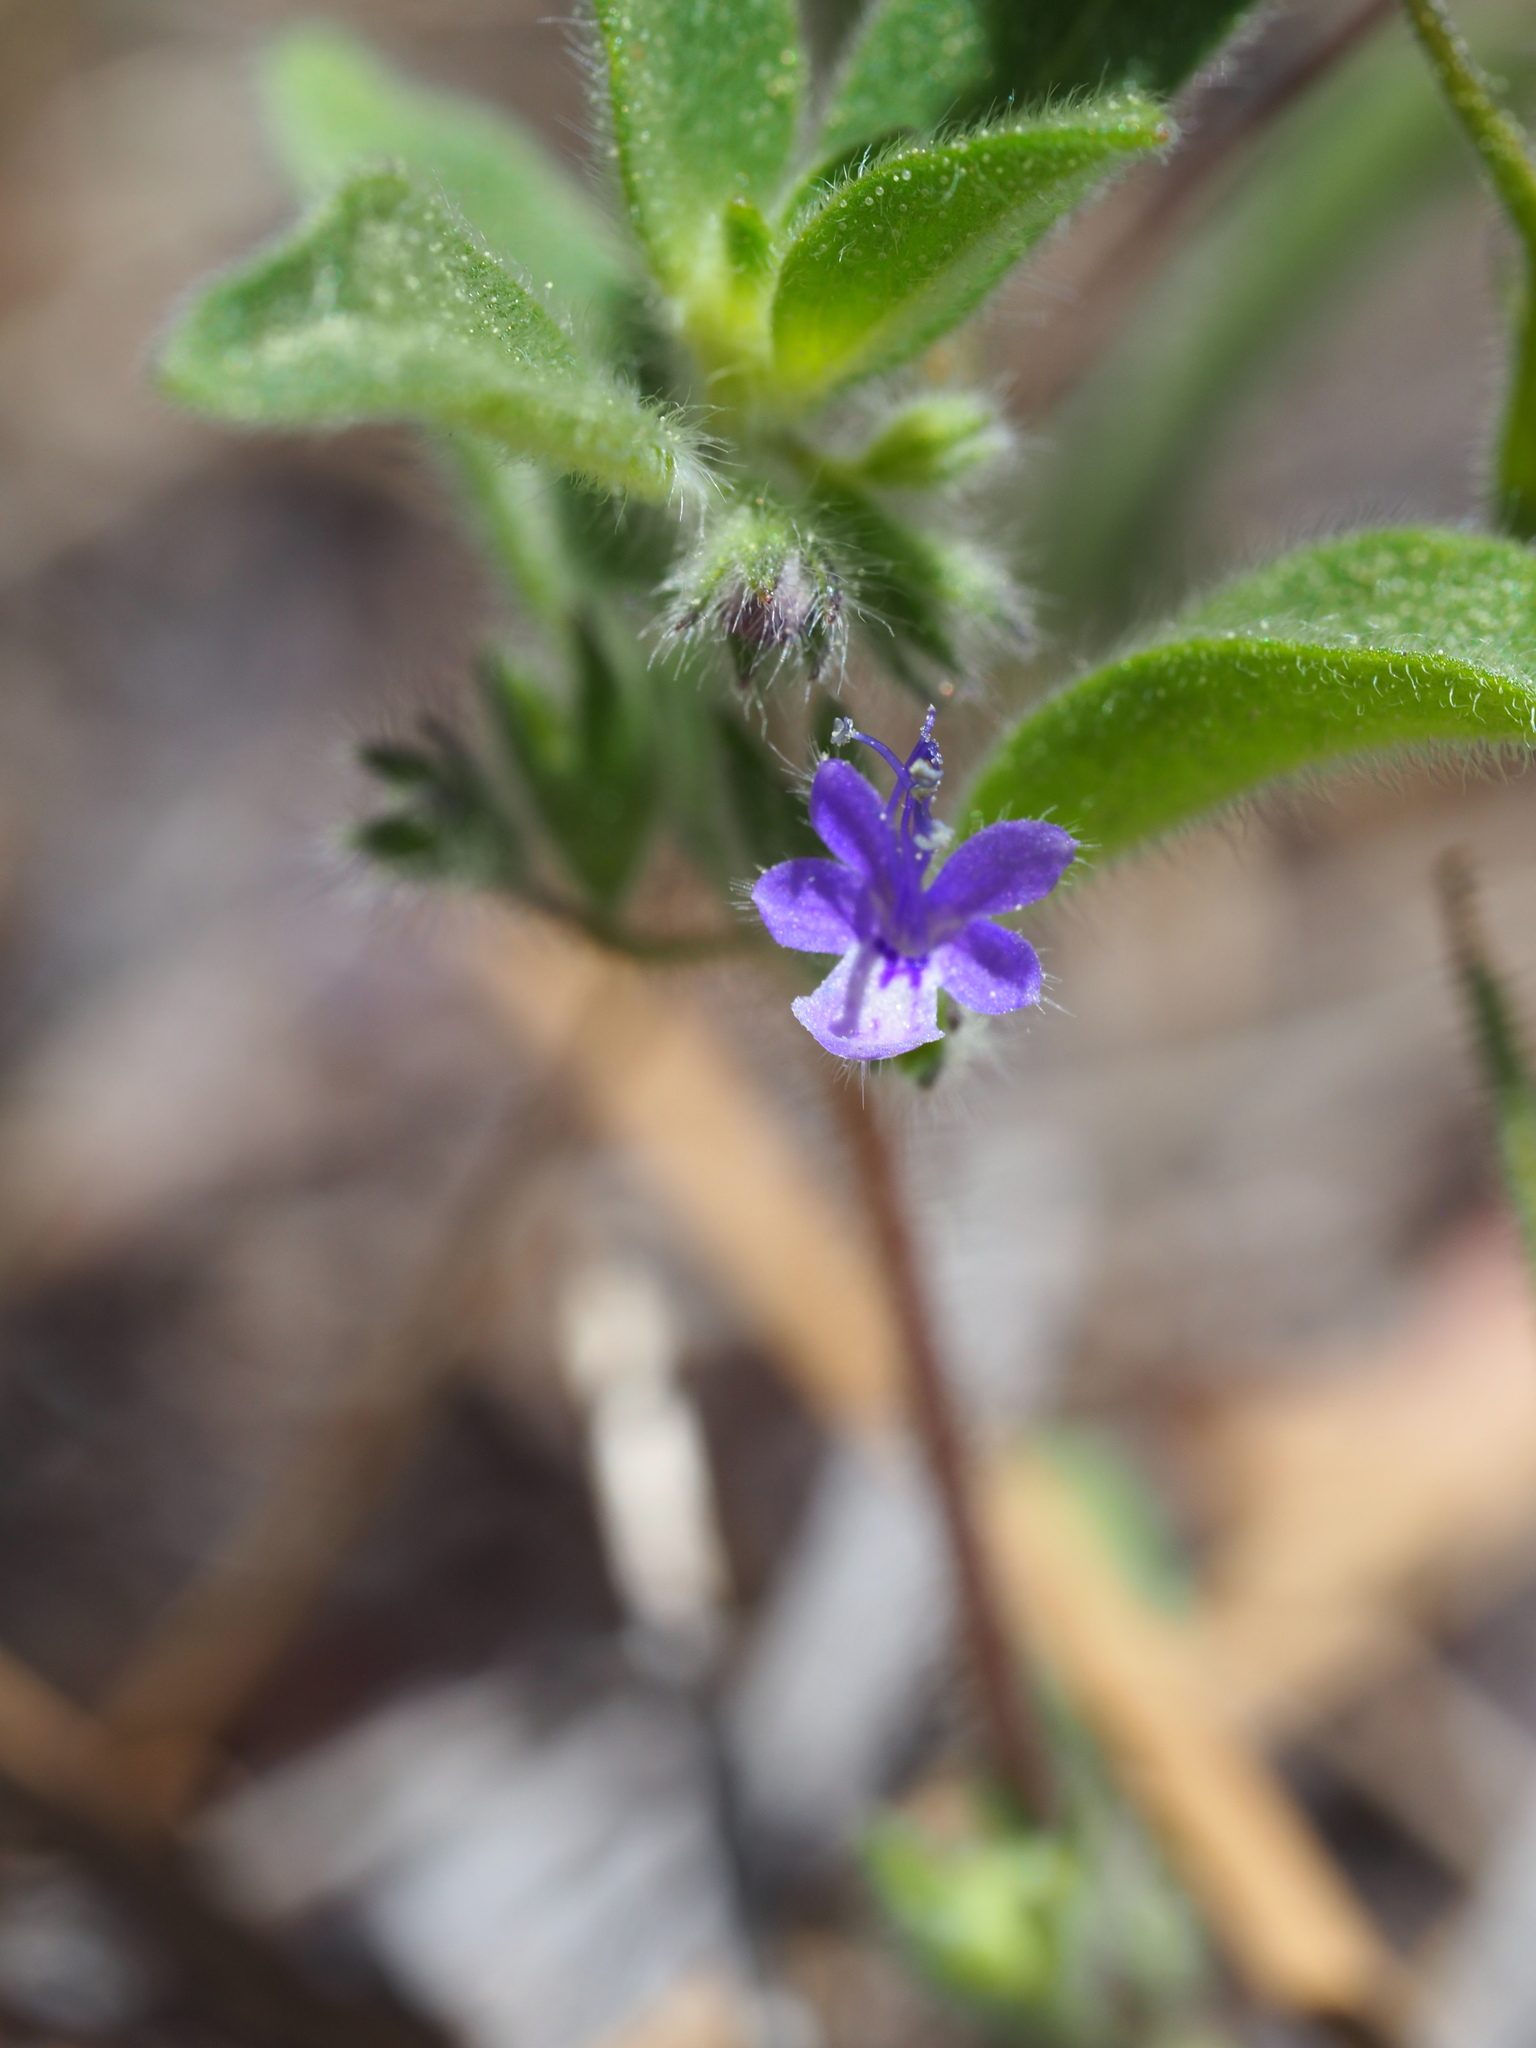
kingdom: Plantae
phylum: Tracheophyta
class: Magnoliopsida
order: Lamiales
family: Lamiaceae
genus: Trichostema
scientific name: Trichostema austromontanum
